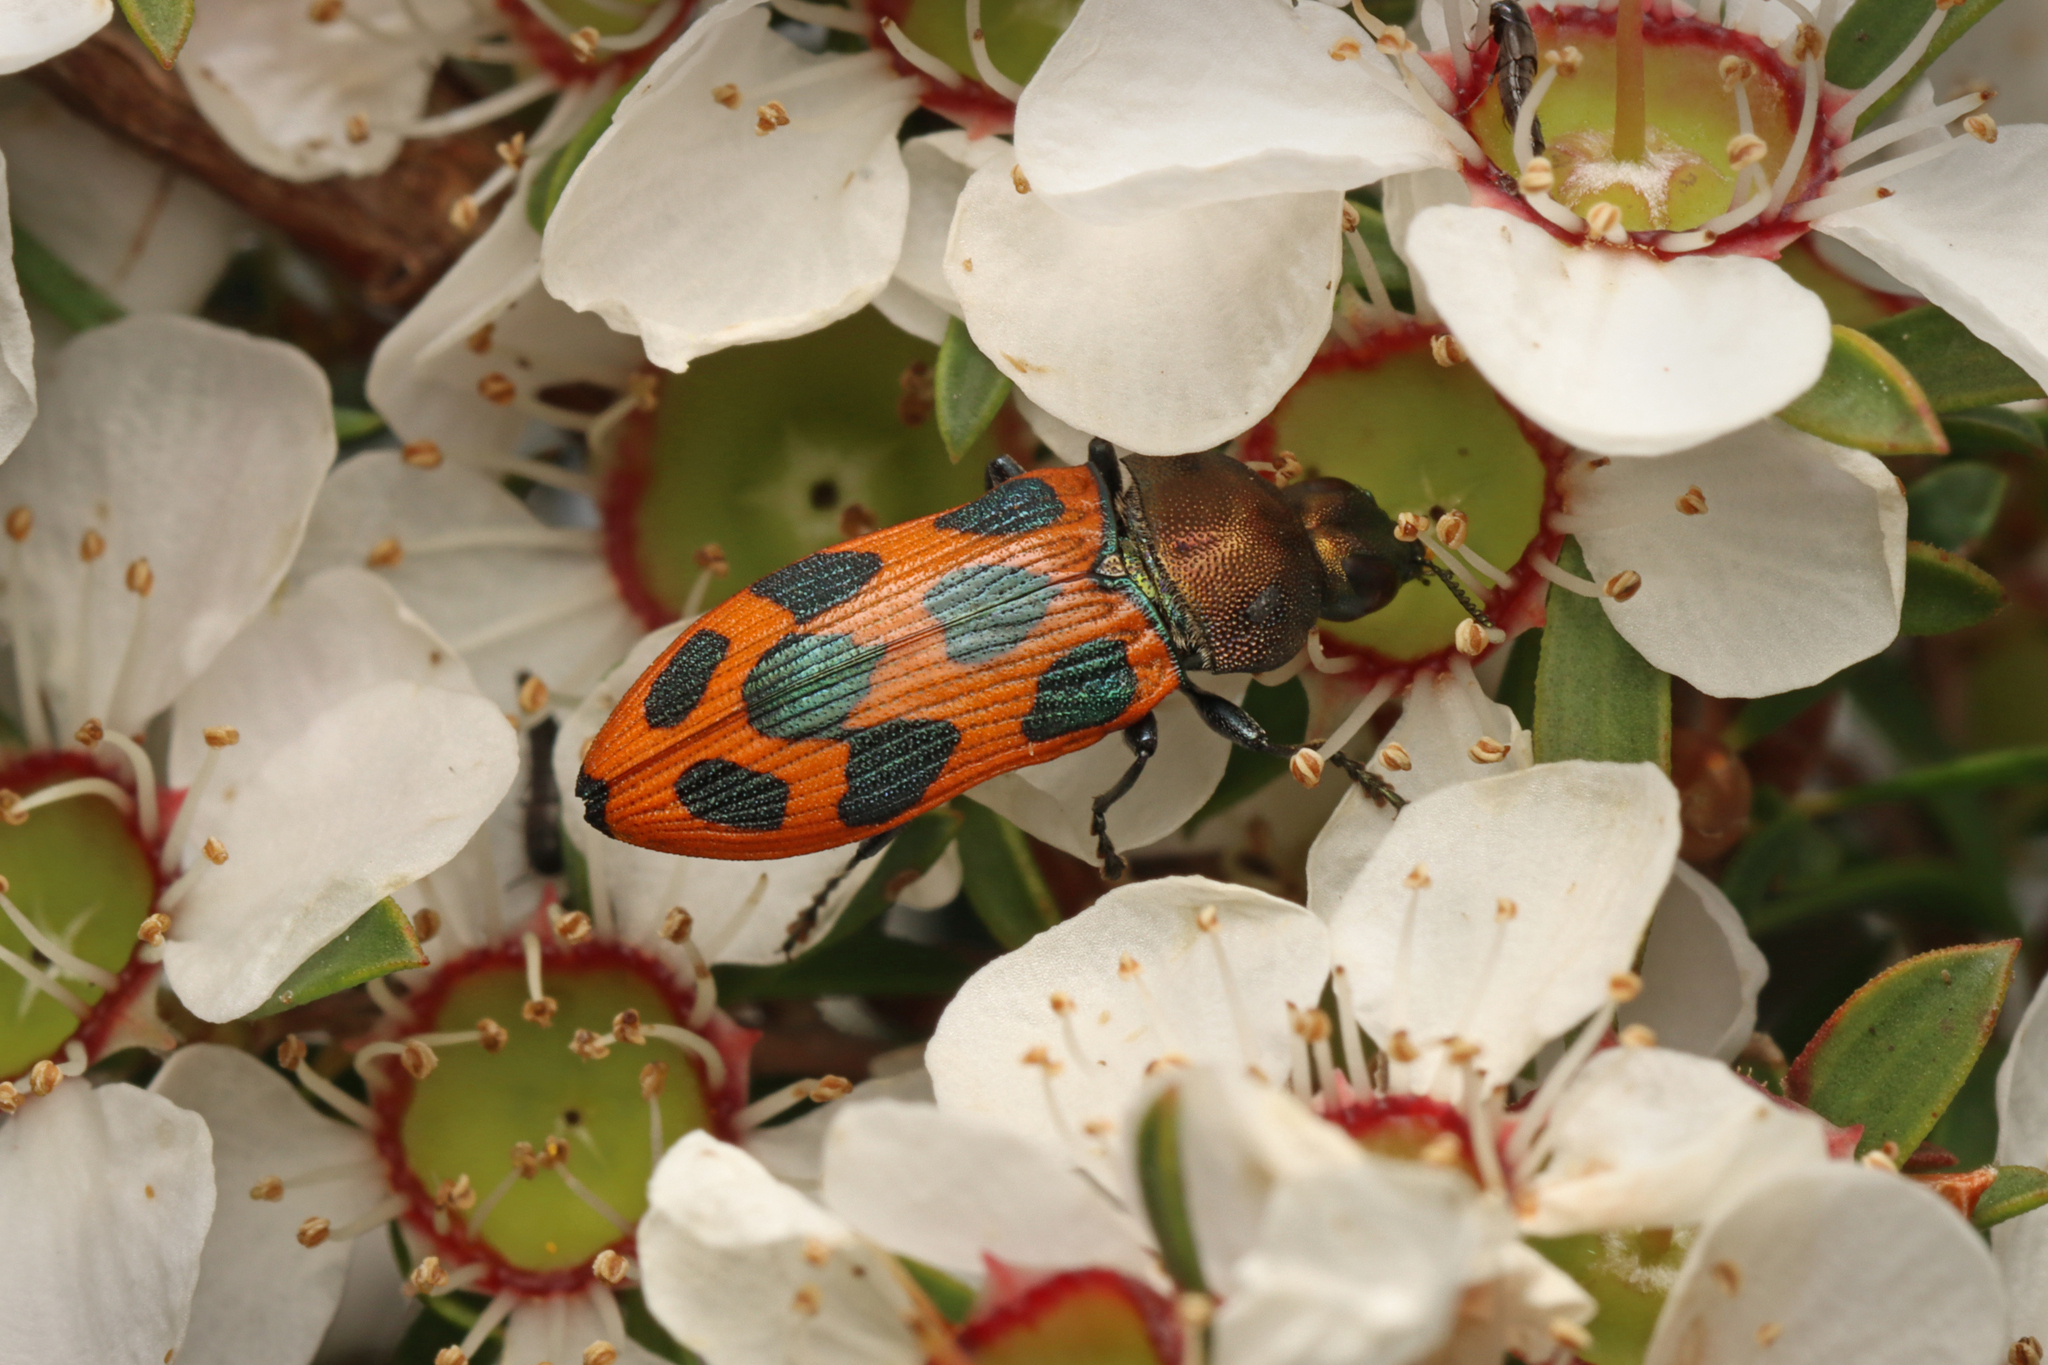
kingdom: Animalia
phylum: Arthropoda
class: Insecta
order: Coleoptera
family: Buprestidae
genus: Castiarina
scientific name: Castiarina octomaculata
